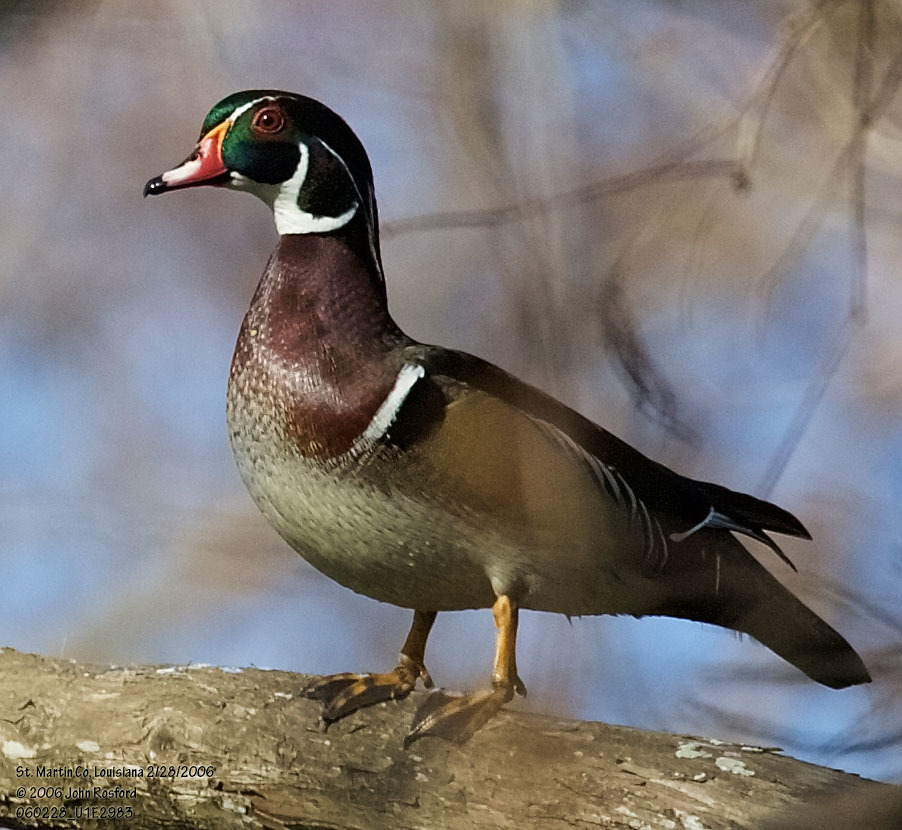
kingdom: Animalia
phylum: Chordata
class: Aves
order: Anseriformes
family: Anatidae
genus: Aix
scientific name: Aix sponsa
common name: Wood duck
